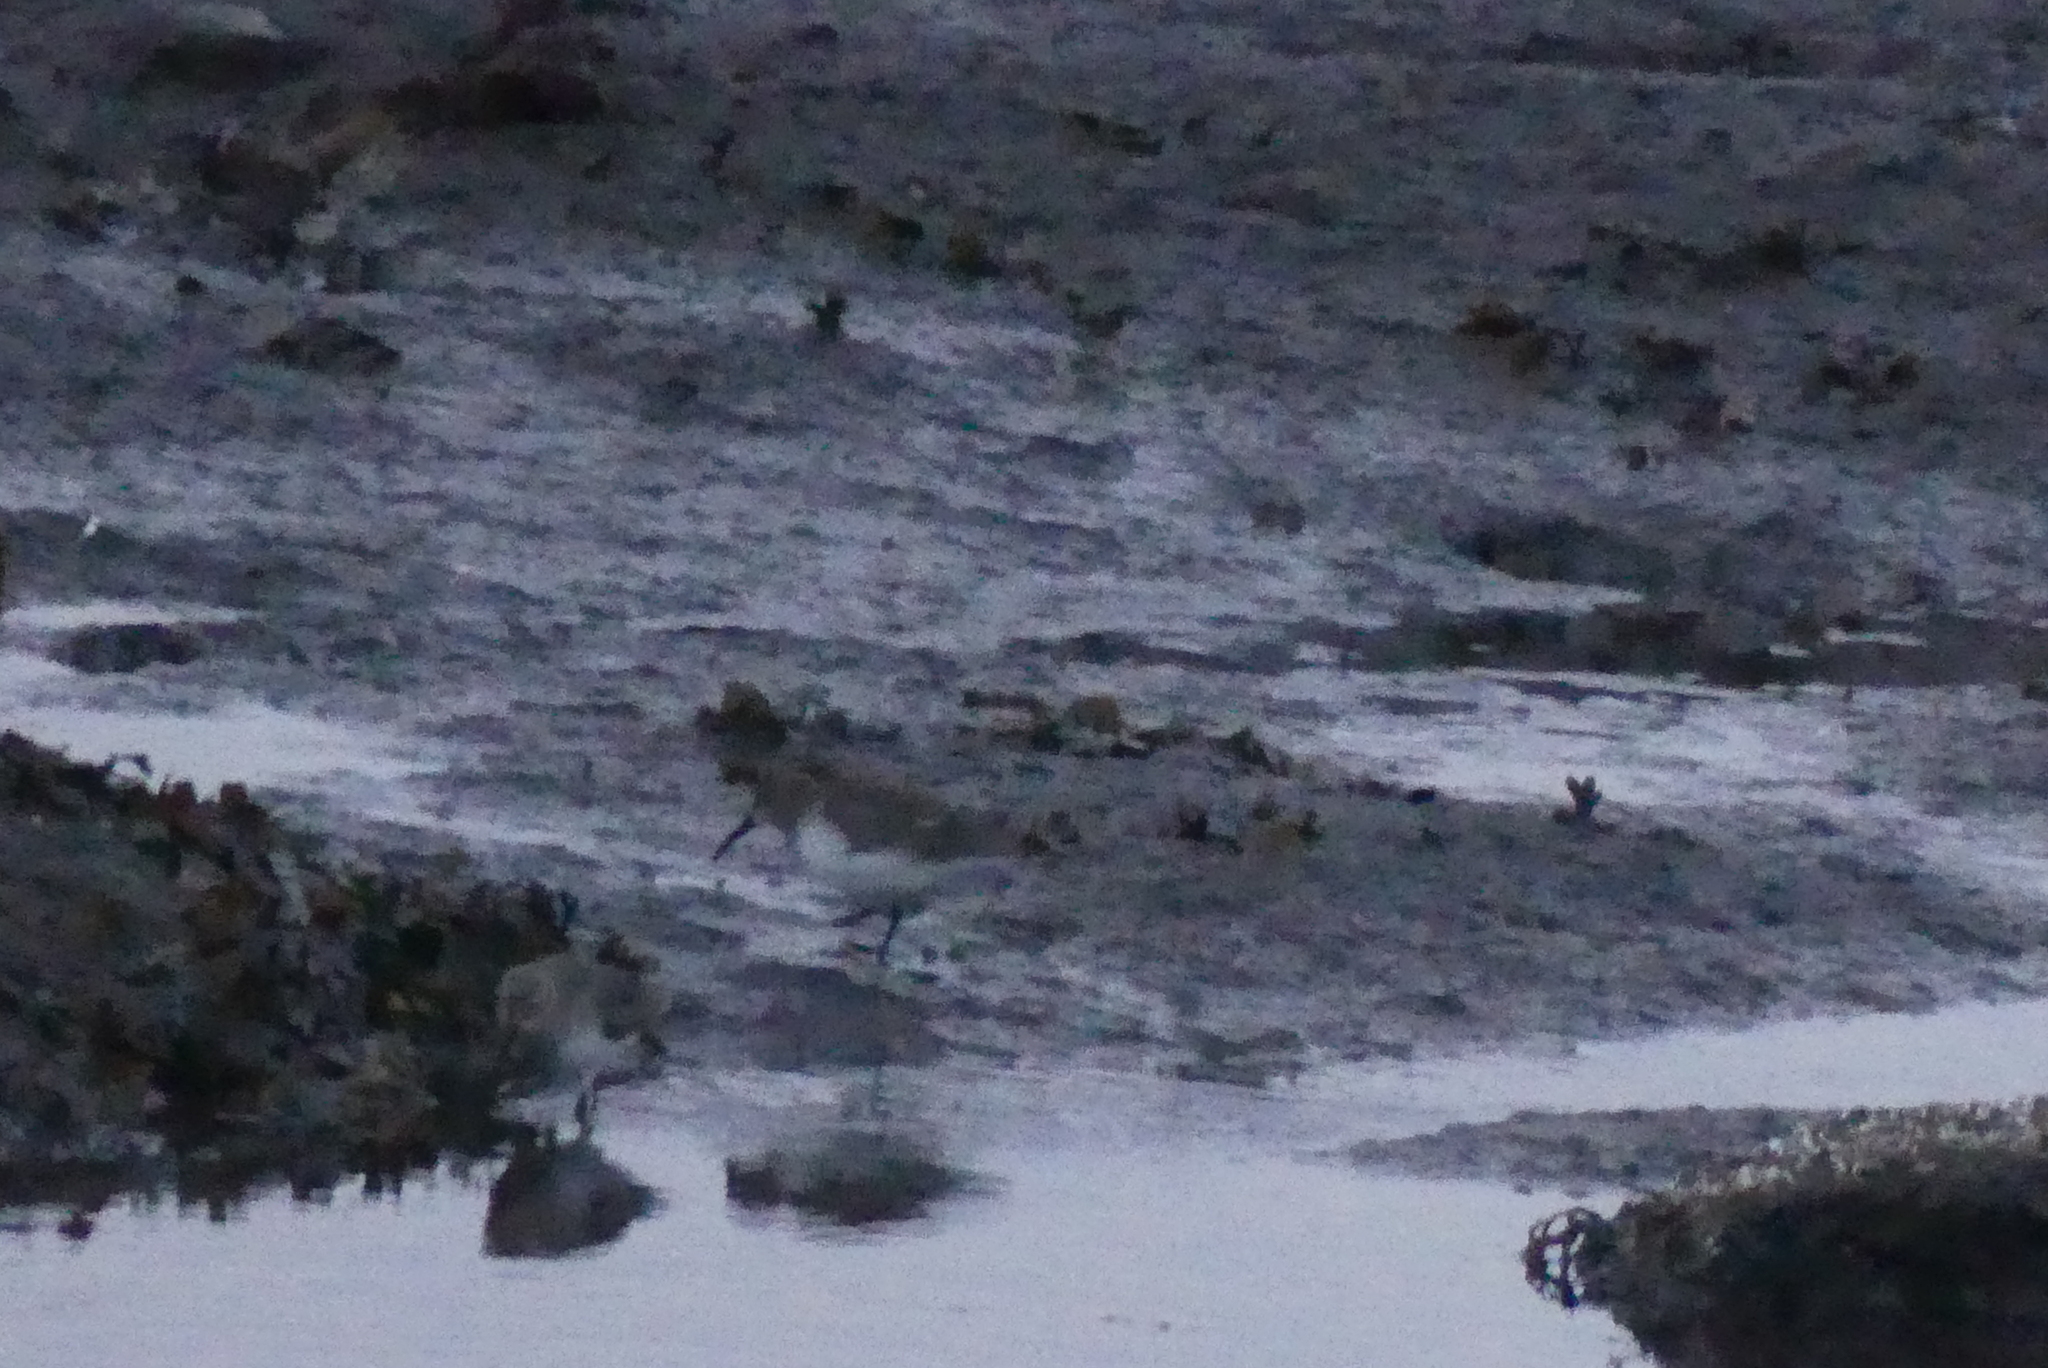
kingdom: Animalia
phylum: Chordata
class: Aves
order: Charadriiformes
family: Scolopacidae
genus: Calidris
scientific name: Calidris alpina
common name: Dunlin
